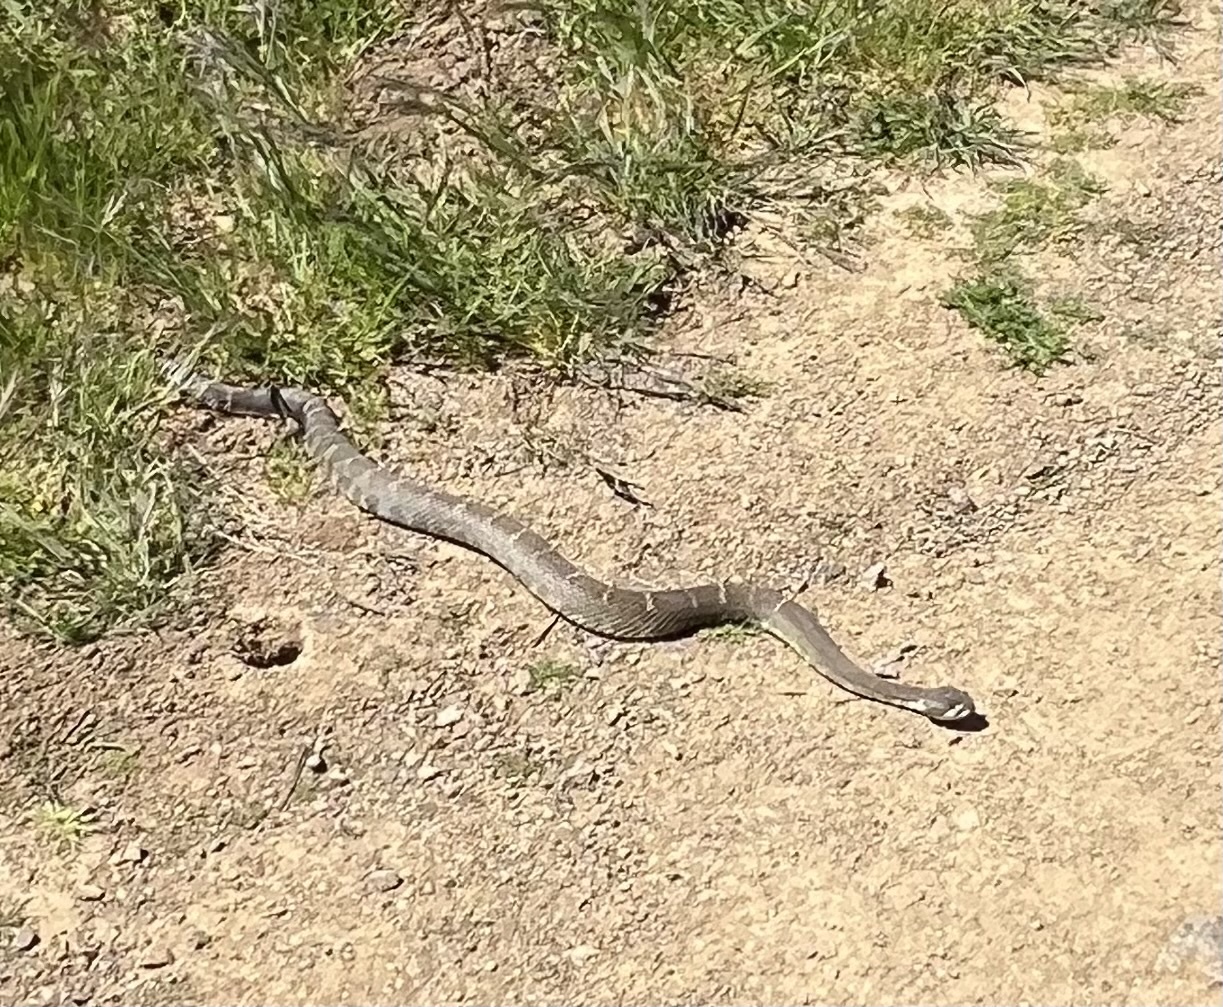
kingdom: Animalia
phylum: Chordata
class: Squamata
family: Viperidae
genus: Crotalus
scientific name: Crotalus oreganus
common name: Abyssus
